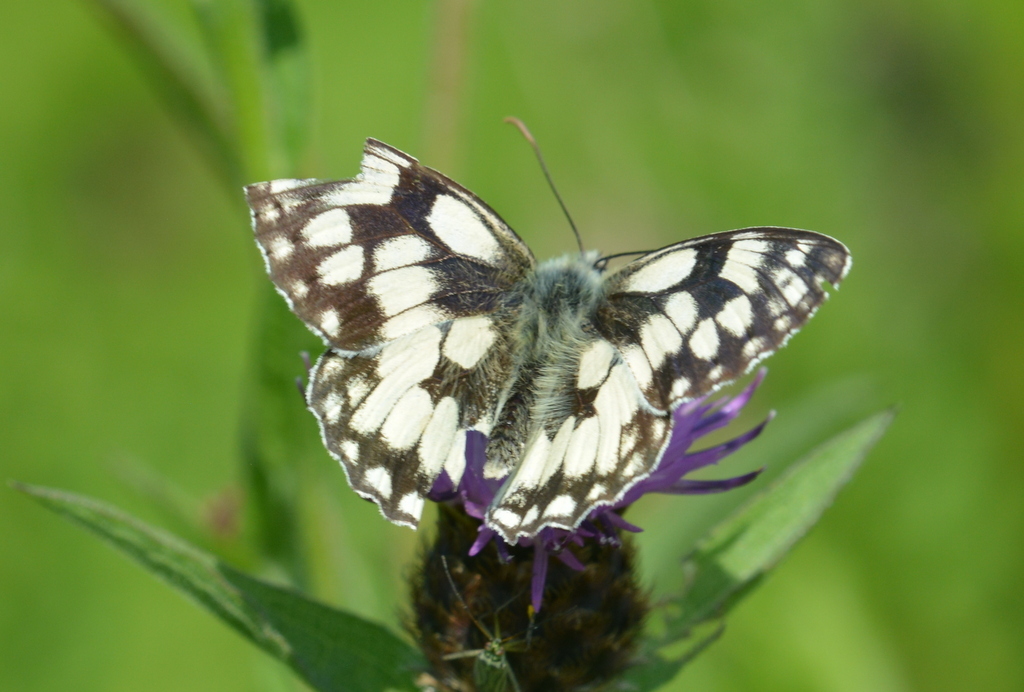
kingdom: Animalia
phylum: Arthropoda
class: Insecta
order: Lepidoptera
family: Nymphalidae
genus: Melanargia
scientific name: Melanargia galathea
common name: Marbled white
